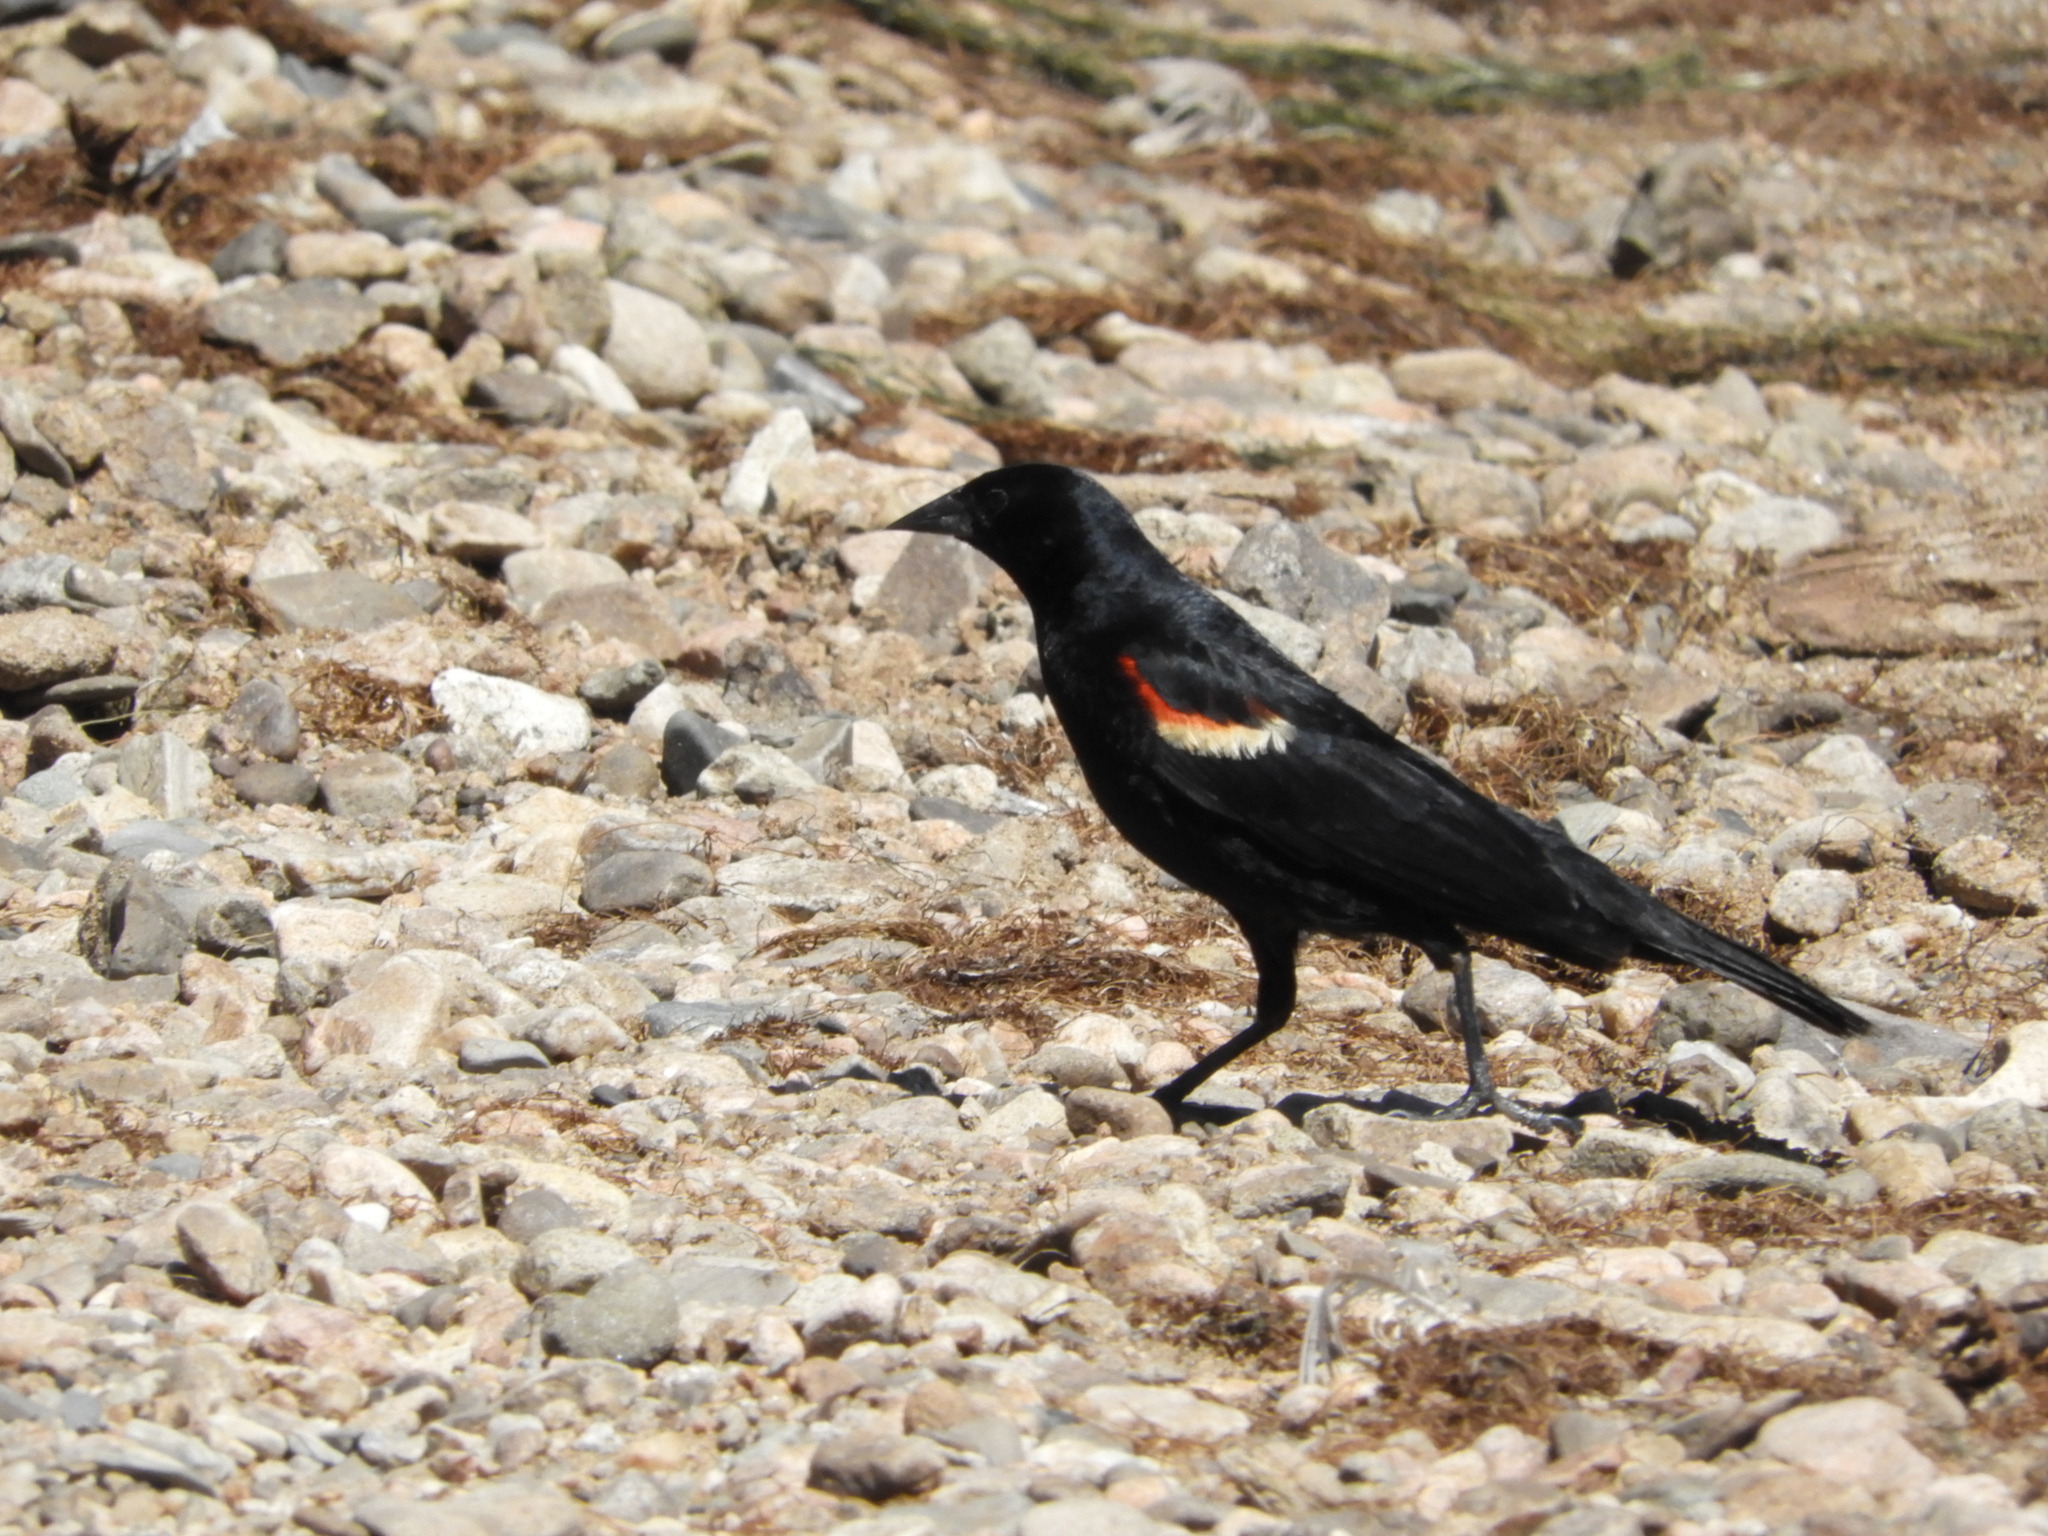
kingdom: Animalia
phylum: Chordata
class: Aves
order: Passeriformes
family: Icteridae
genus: Agelaius
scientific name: Agelaius phoeniceus
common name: Red-winged blackbird
